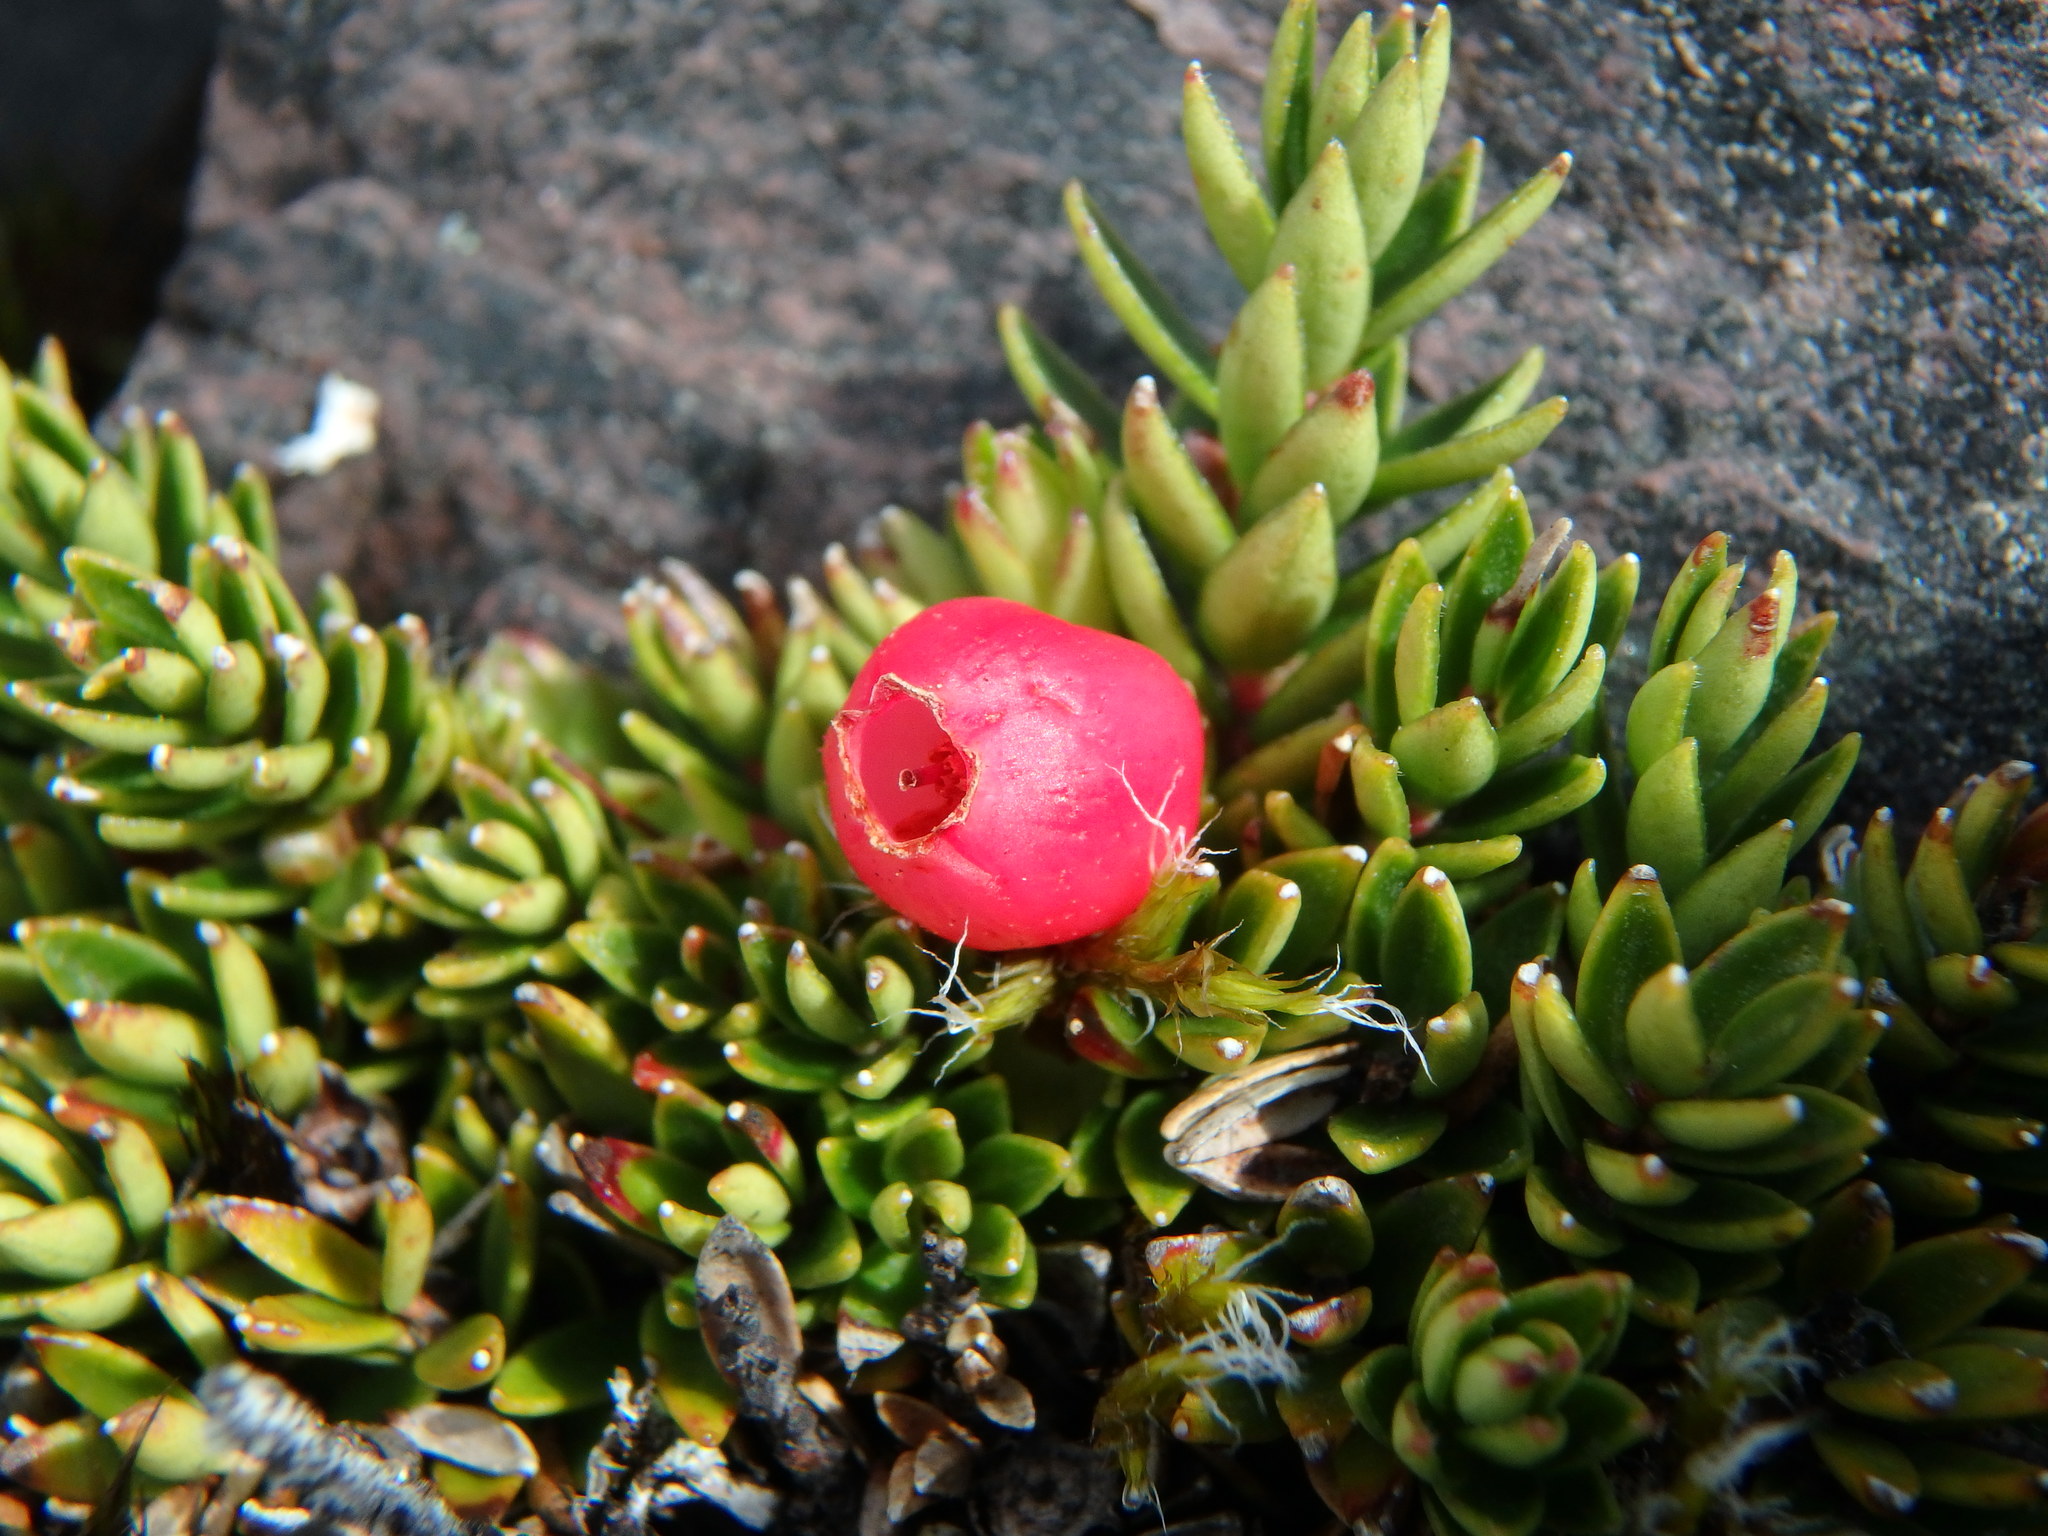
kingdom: Plantae
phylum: Tracheophyta
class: Magnoliopsida
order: Ericales
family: Ericaceae
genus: Disterigma
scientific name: Disterigma empetrifolium
